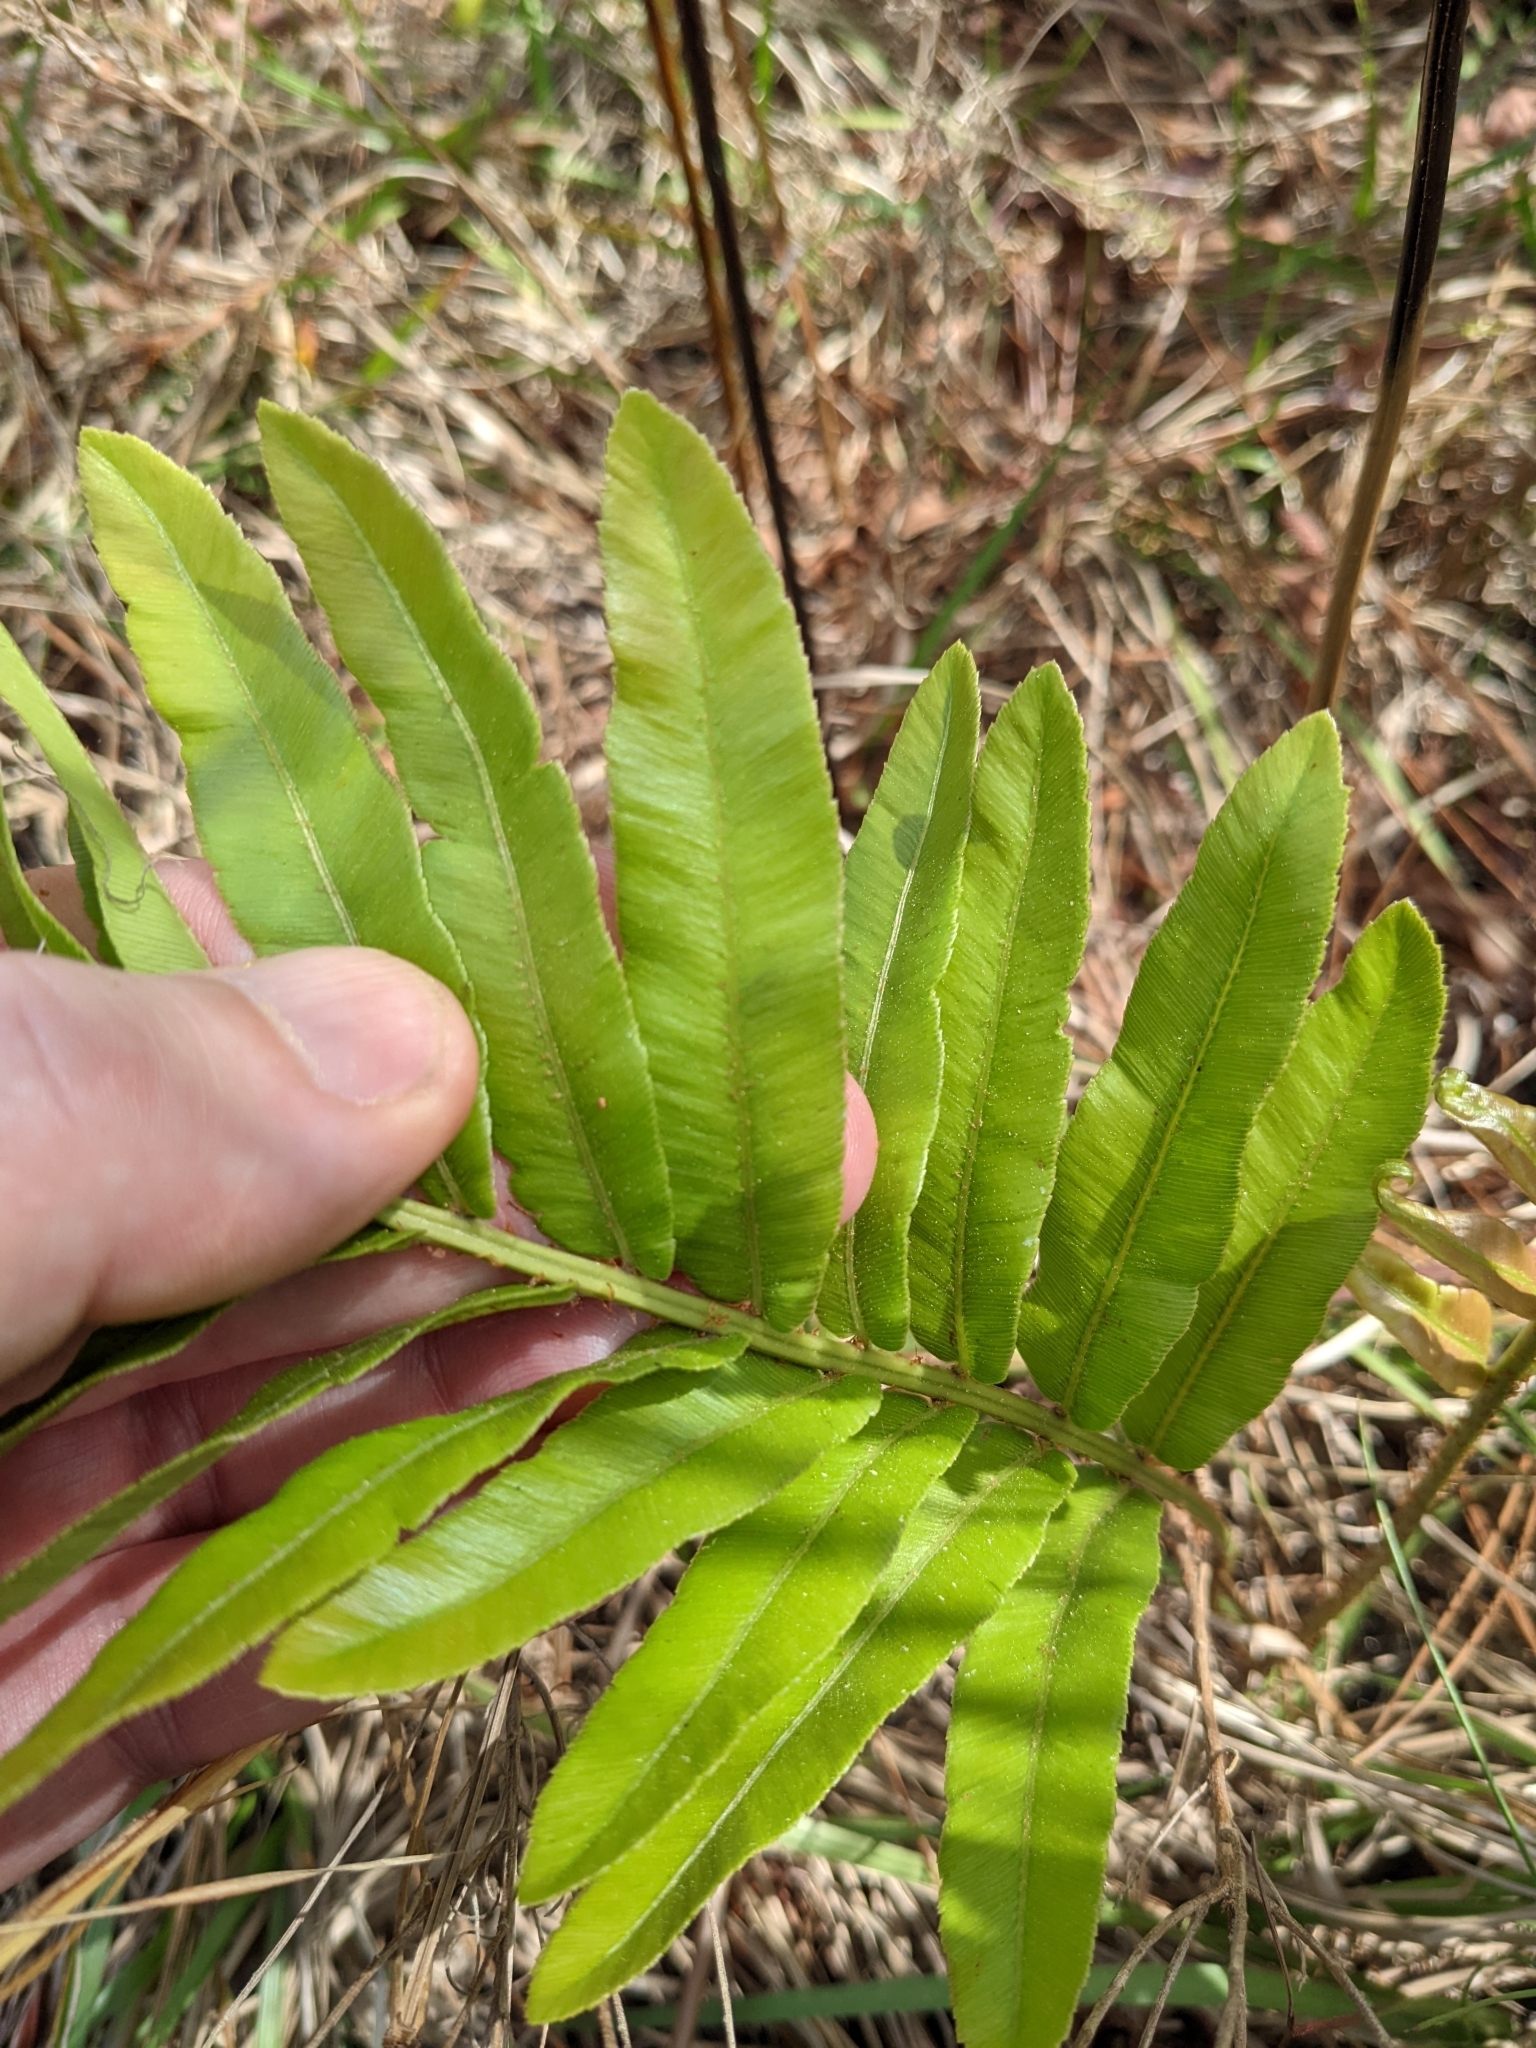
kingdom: Plantae
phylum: Tracheophyta
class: Polypodiopsida
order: Polypodiales
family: Blechnaceae
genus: Telmatoblechnum
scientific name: Telmatoblechnum serrulatum
